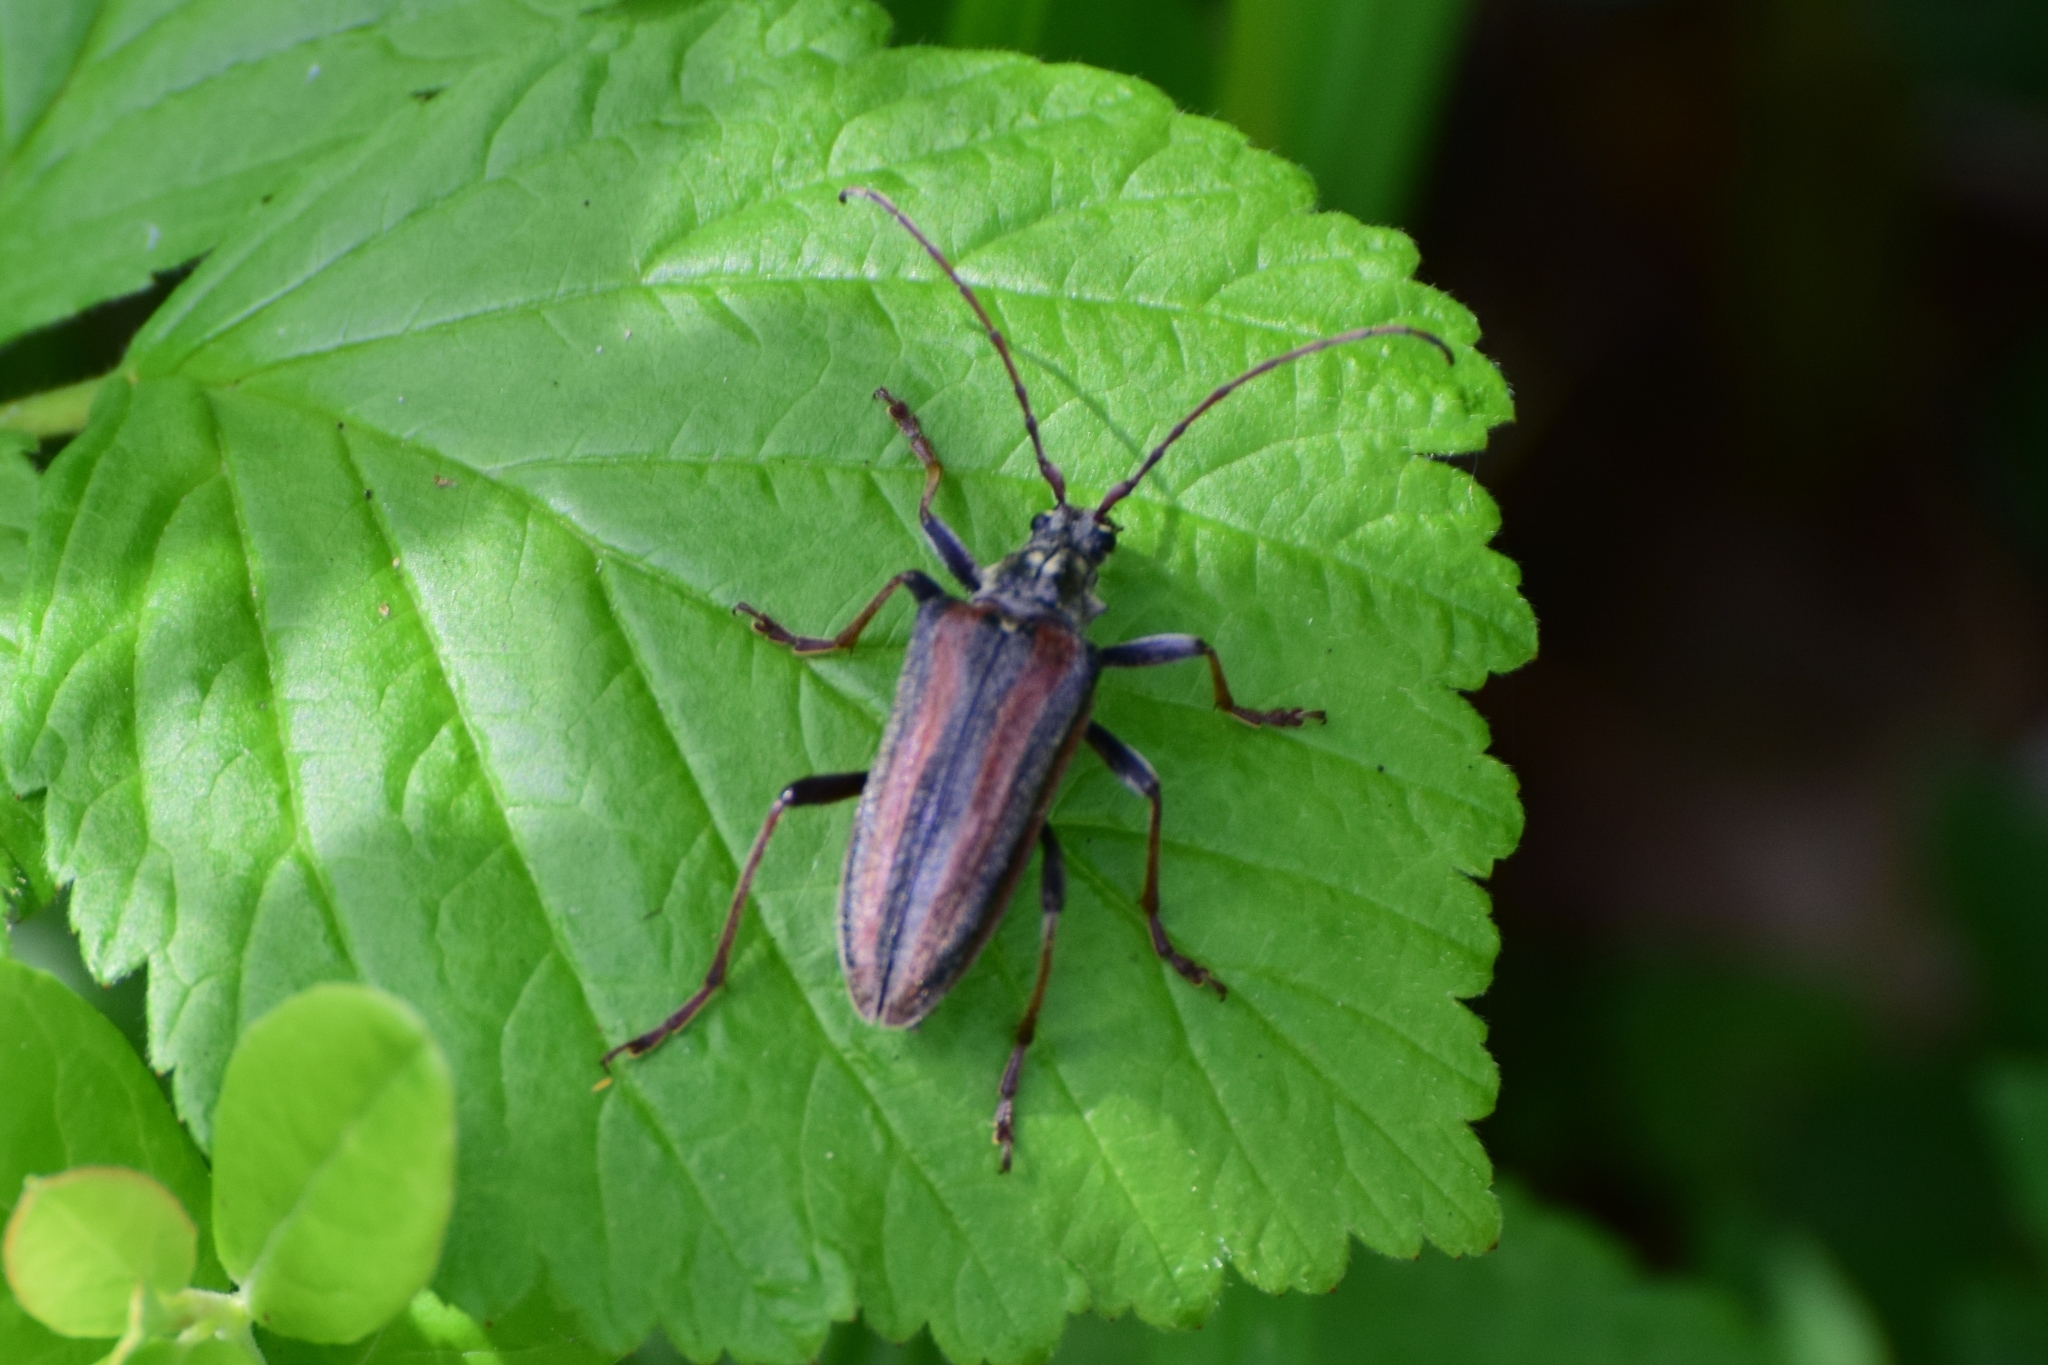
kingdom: Animalia
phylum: Arthropoda
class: Insecta
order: Coleoptera
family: Cerambycidae
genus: Oxymirus
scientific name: Oxymirus cursor
